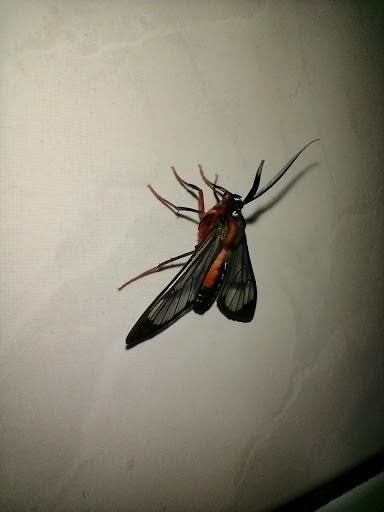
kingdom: Animalia
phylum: Arthropoda
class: Insecta
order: Lepidoptera
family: Erebidae
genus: Cosmosoma
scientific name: Cosmosoma auge
